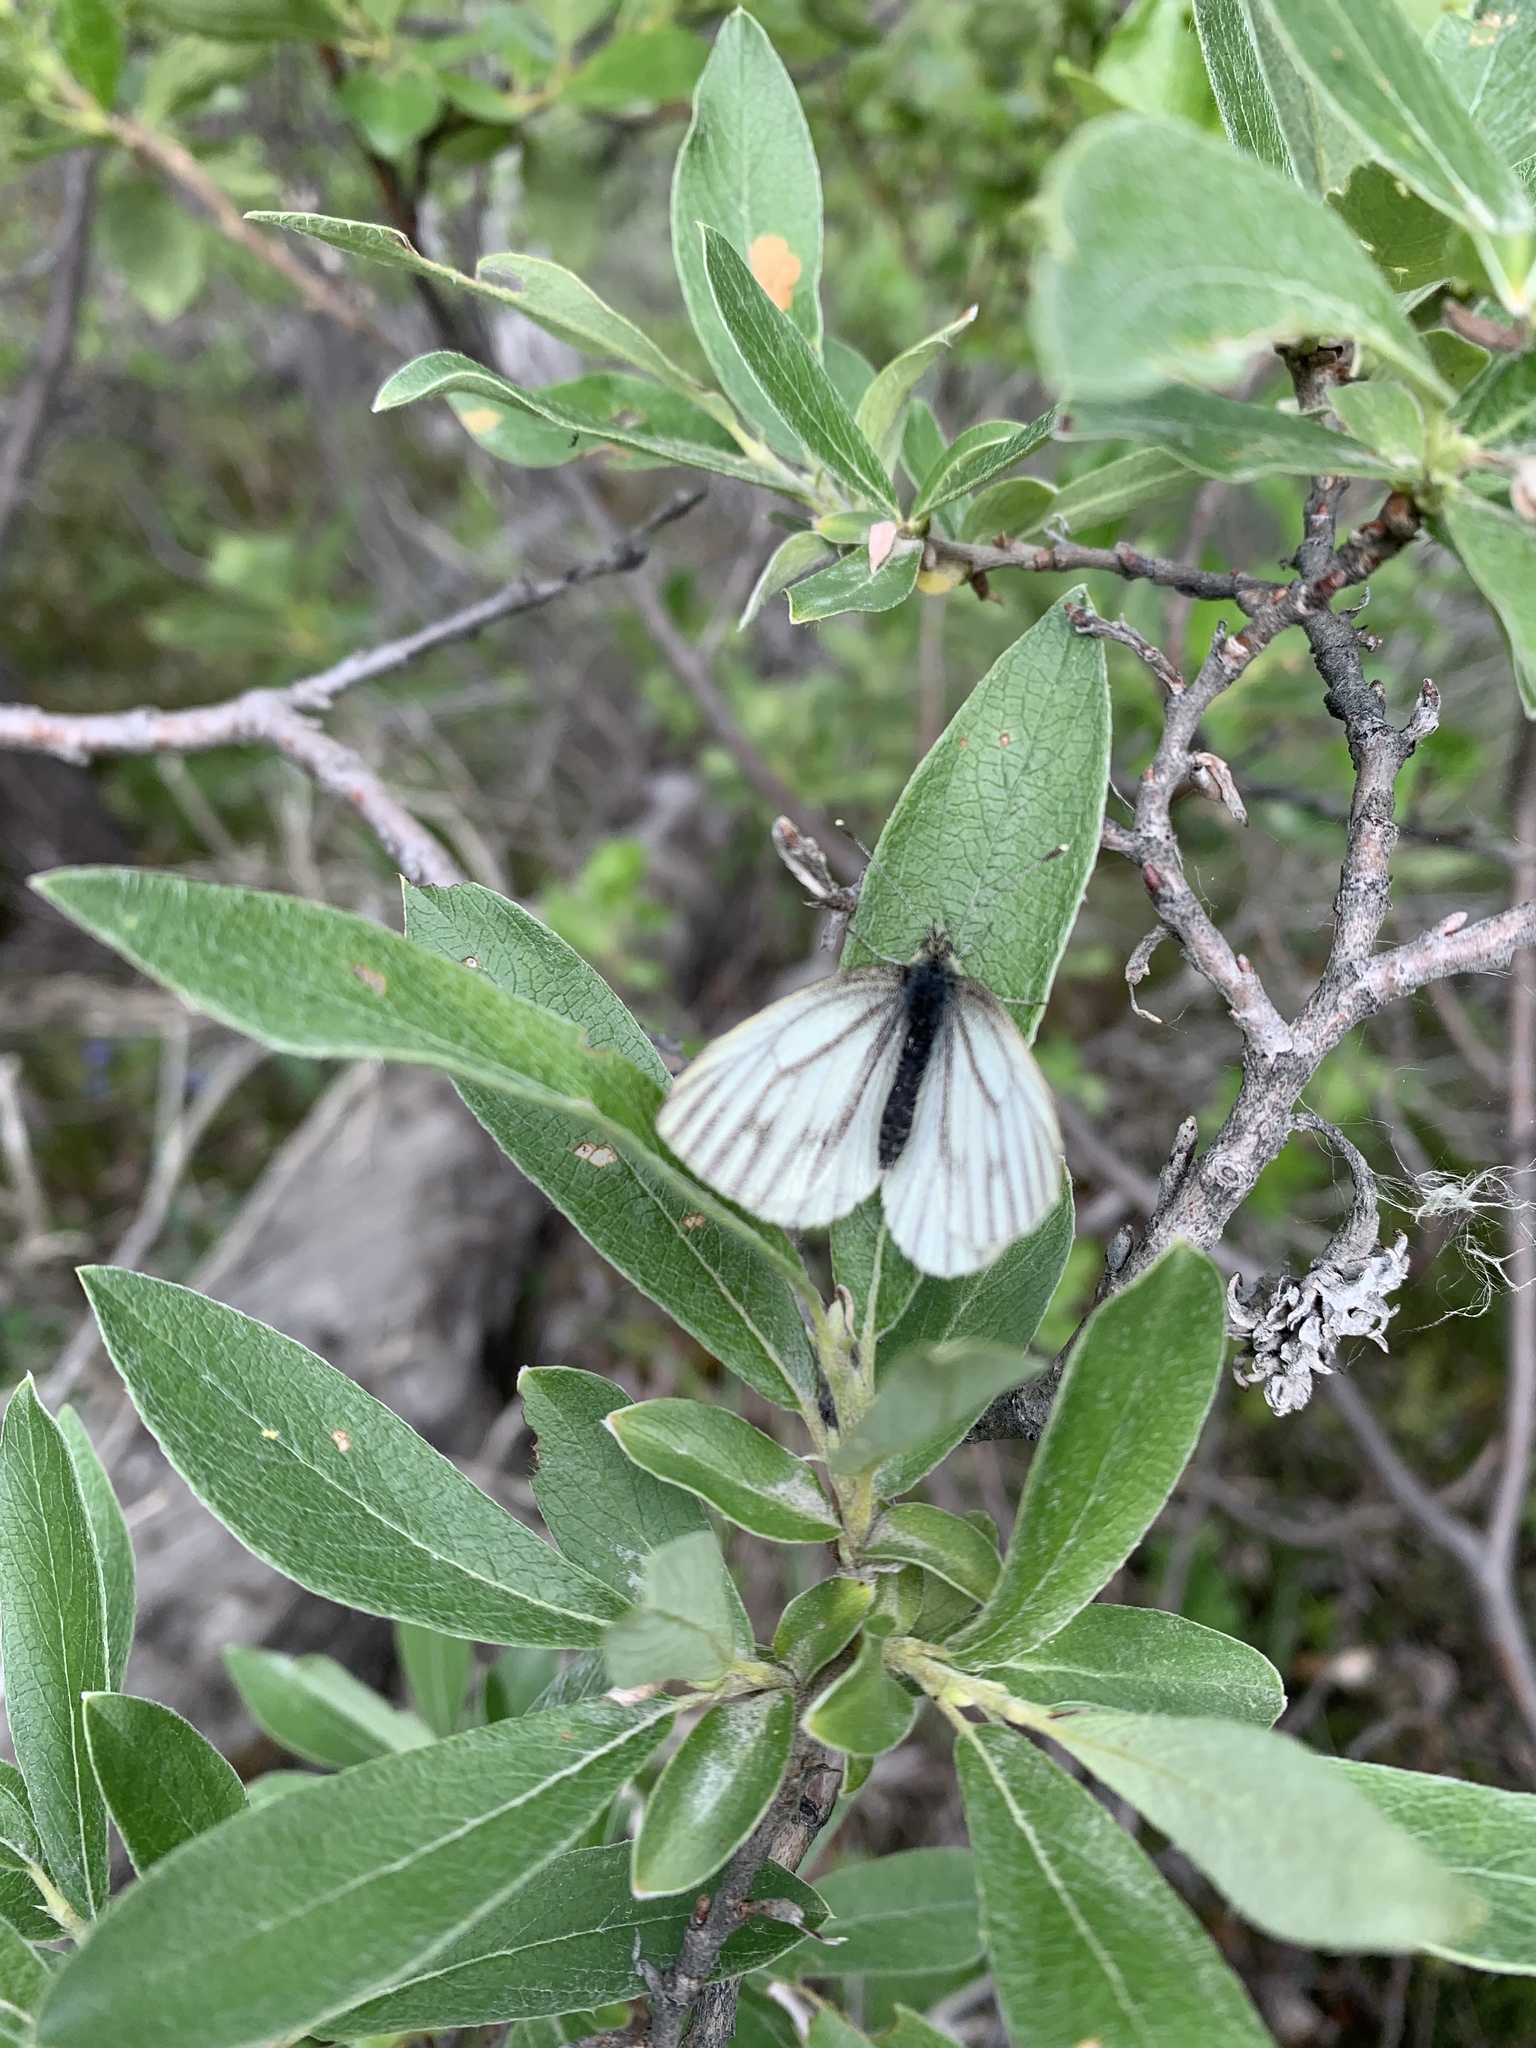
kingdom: Animalia
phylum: Arthropoda
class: Insecta
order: Lepidoptera
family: Pieridae
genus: Pieris
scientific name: Pieris marginalis
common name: Margined white
